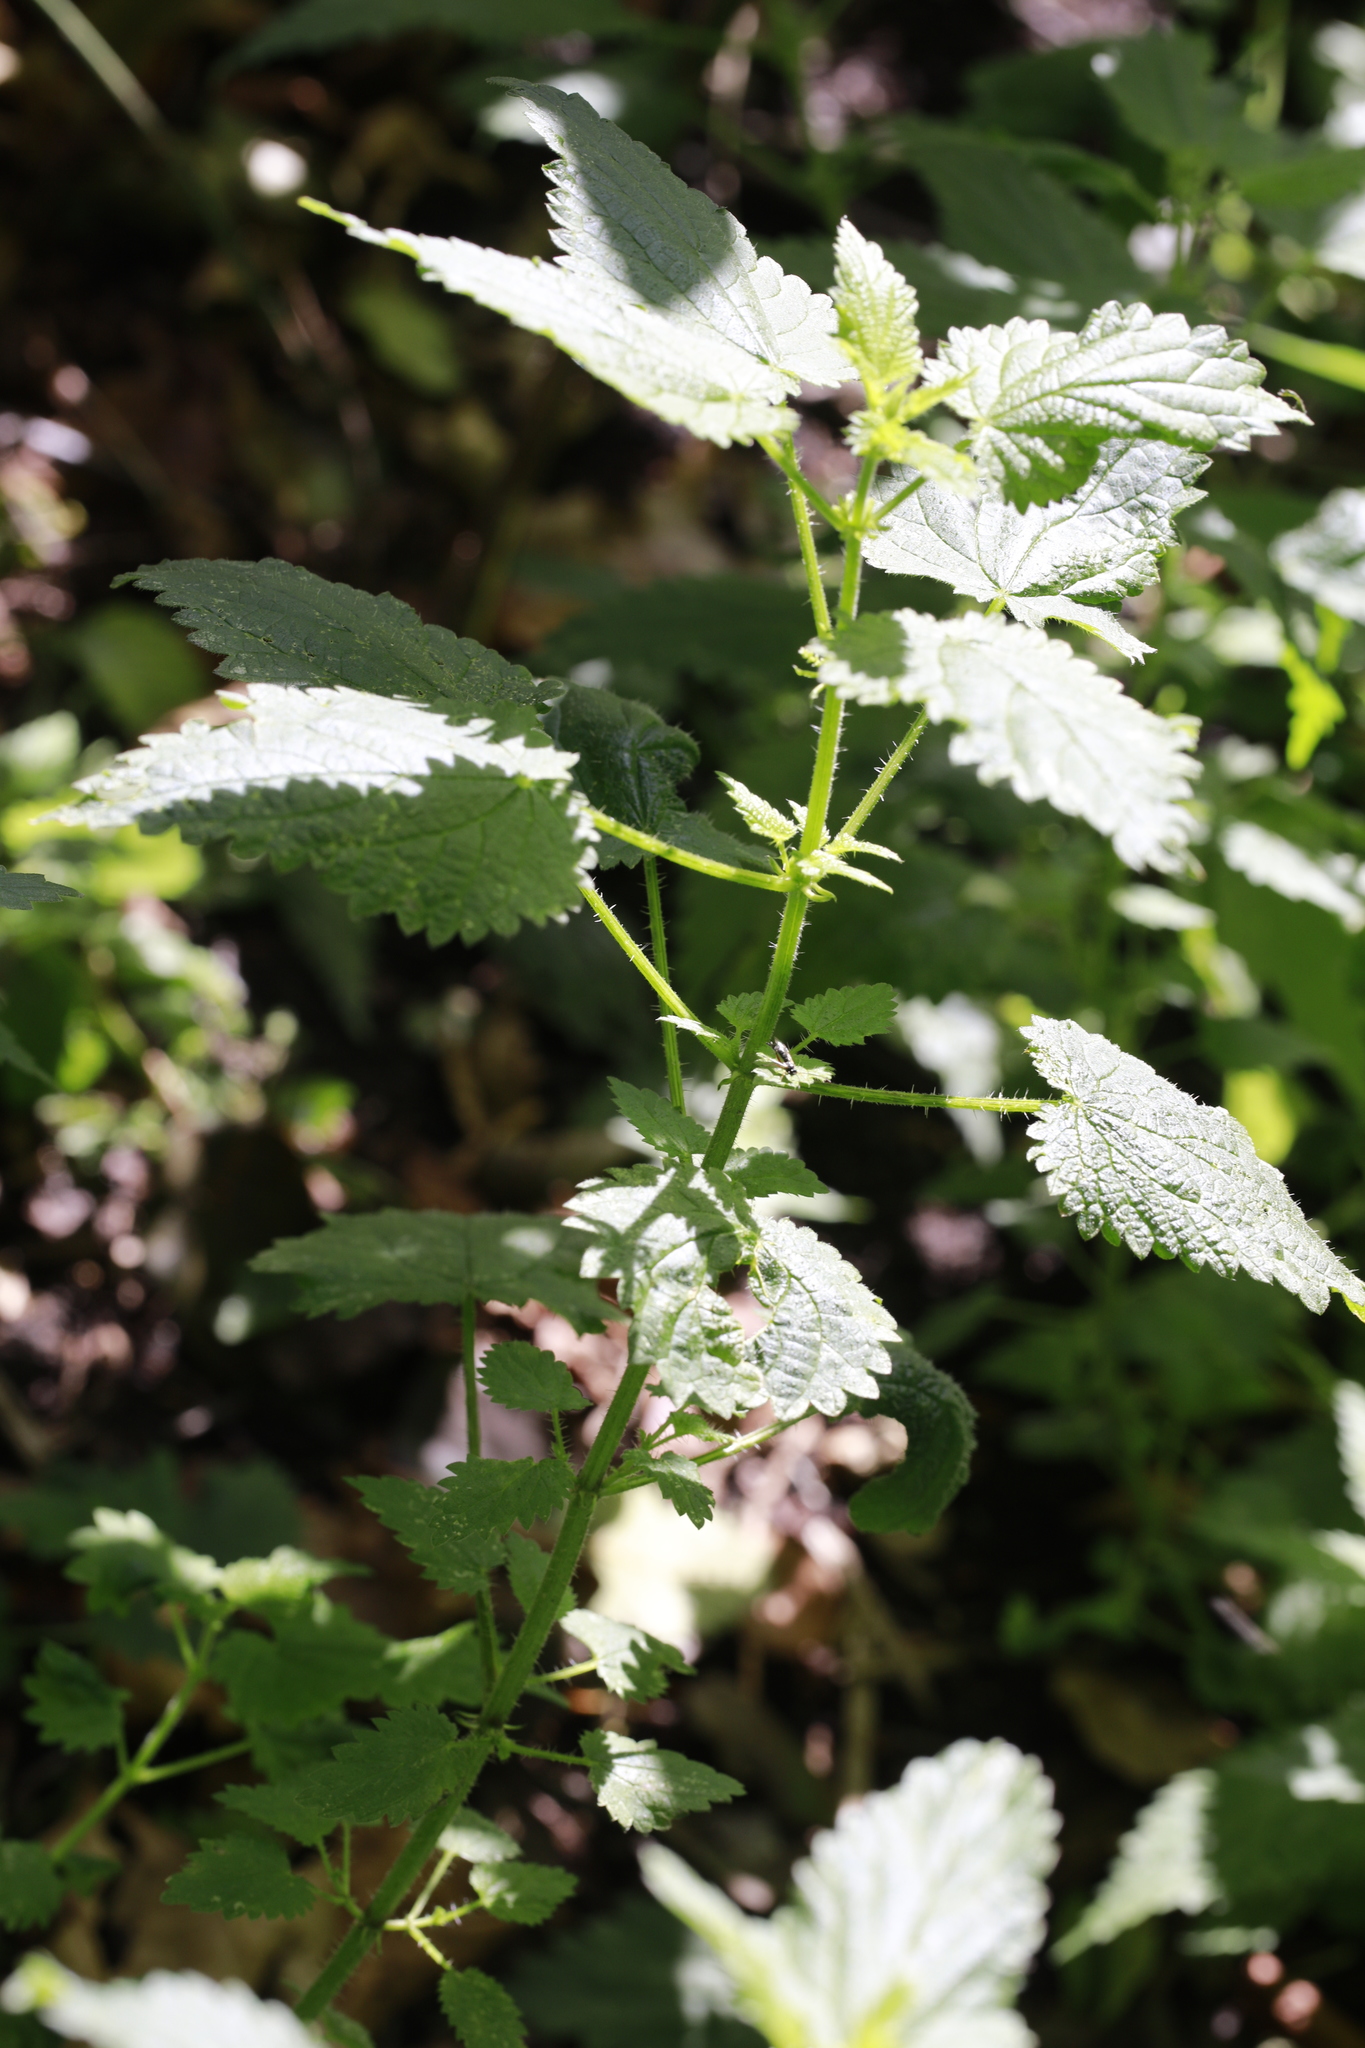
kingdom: Plantae
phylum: Tracheophyta
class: Magnoliopsida
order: Rosales
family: Urticaceae
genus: Urtica
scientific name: Urtica dioica
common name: Common nettle
